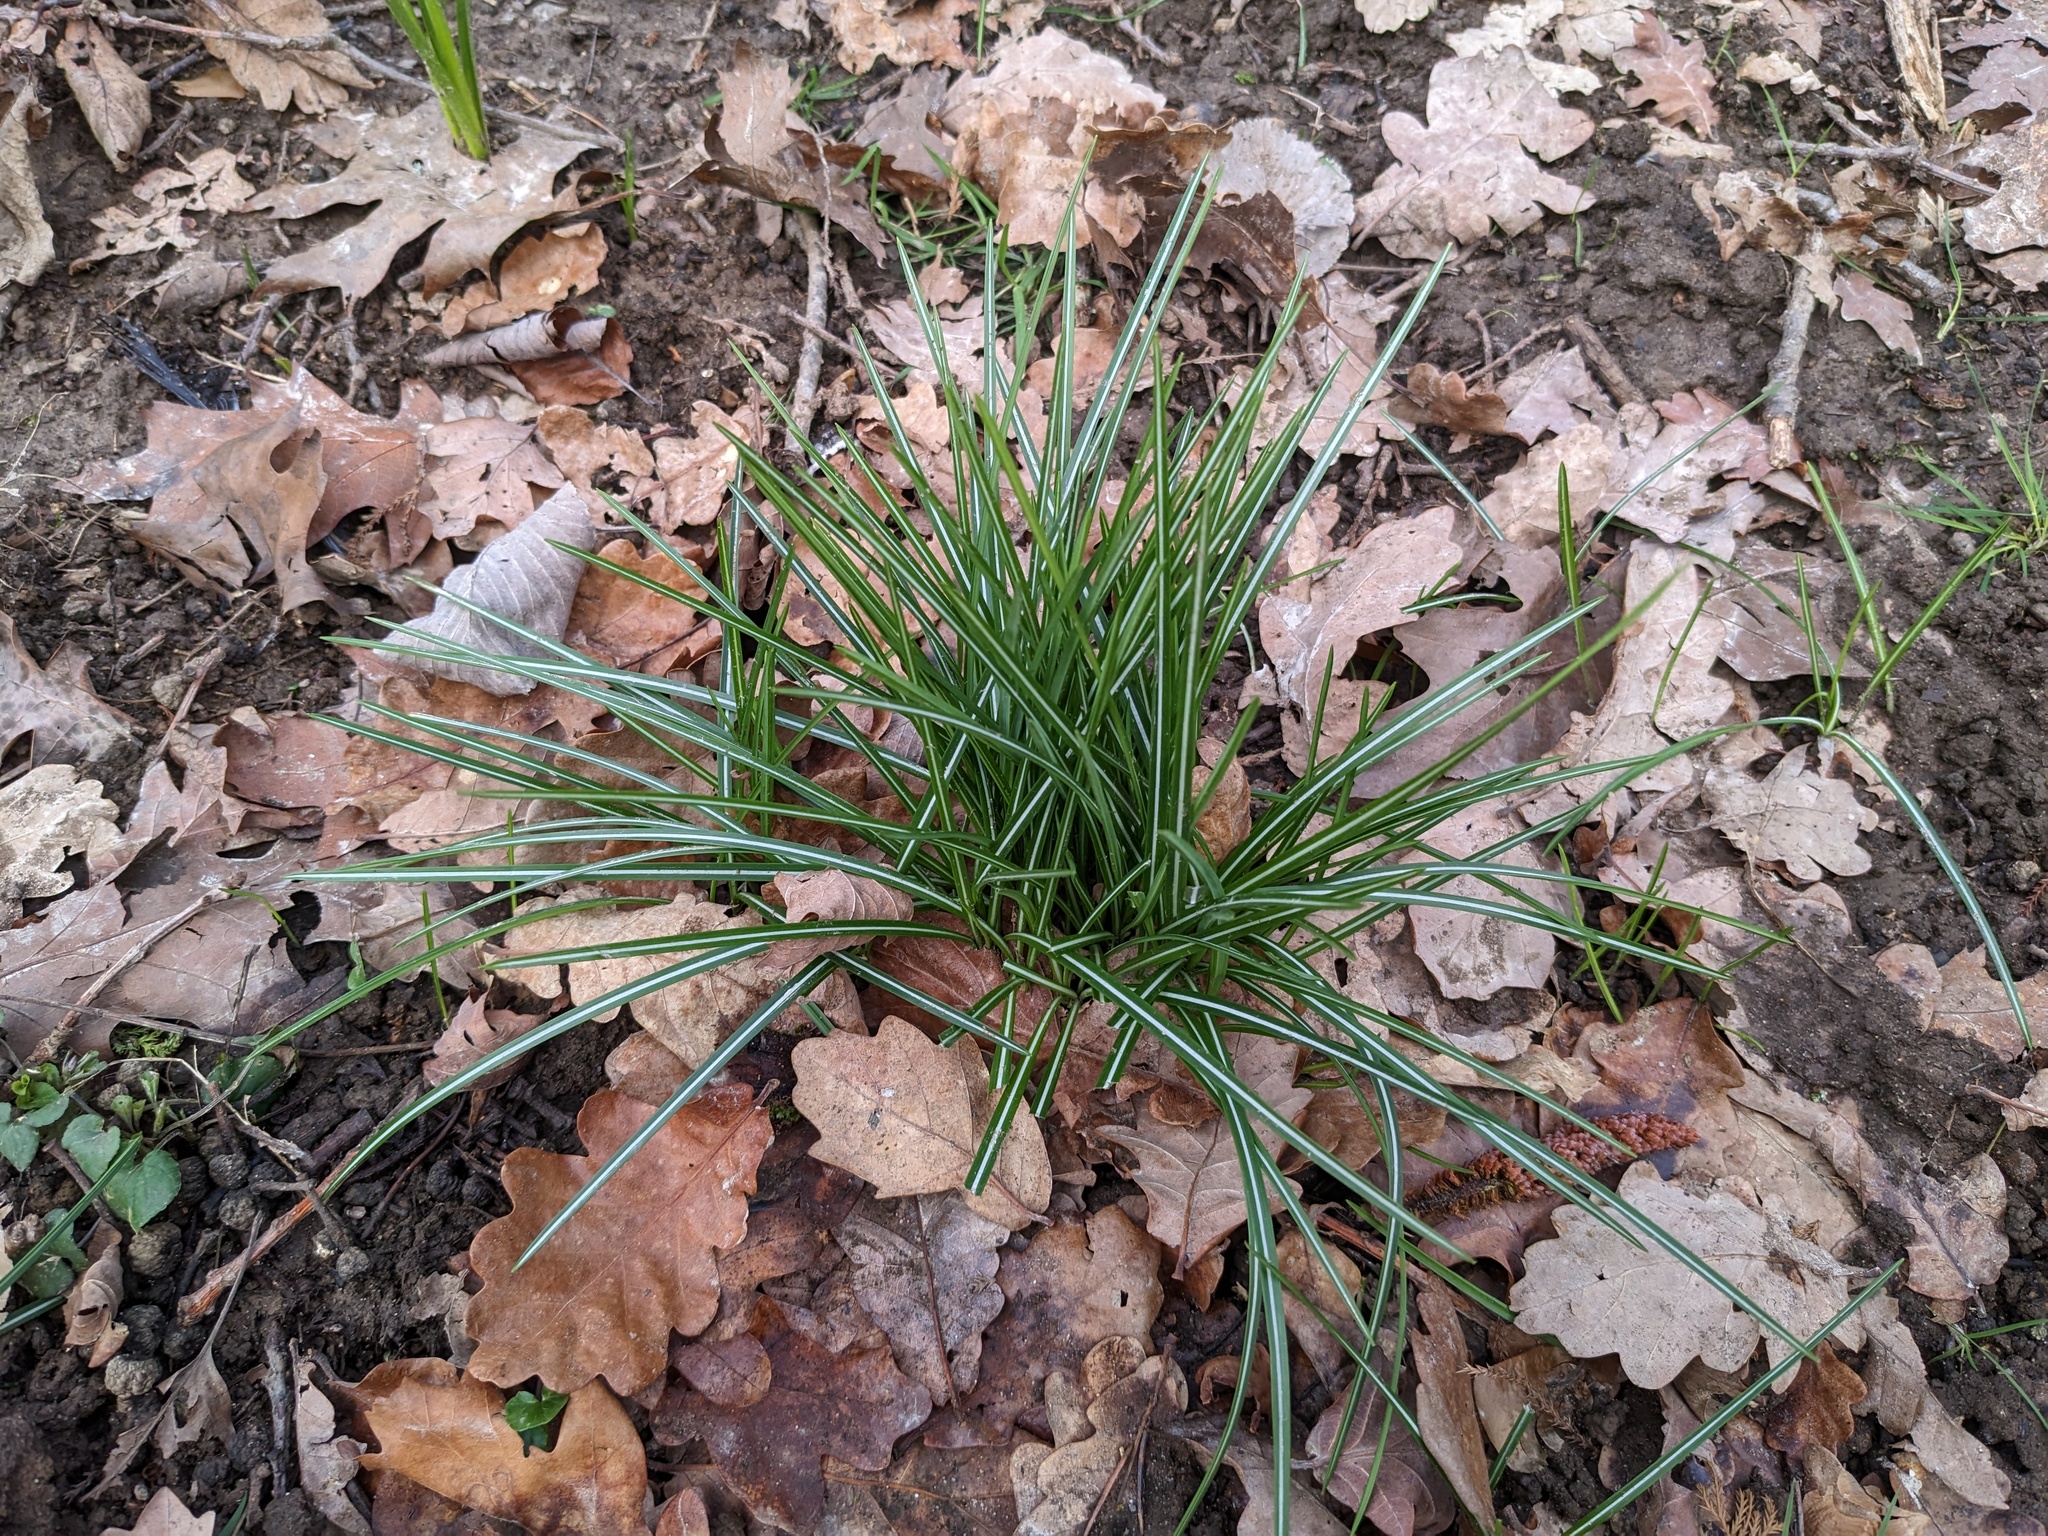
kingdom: Plantae
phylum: Tracheophyta
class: Liliopsida
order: Asparagales
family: Asparagaceae
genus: Ornithogalum
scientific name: Ornithogalum umbellatum
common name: Garden star-of-bethlehem
